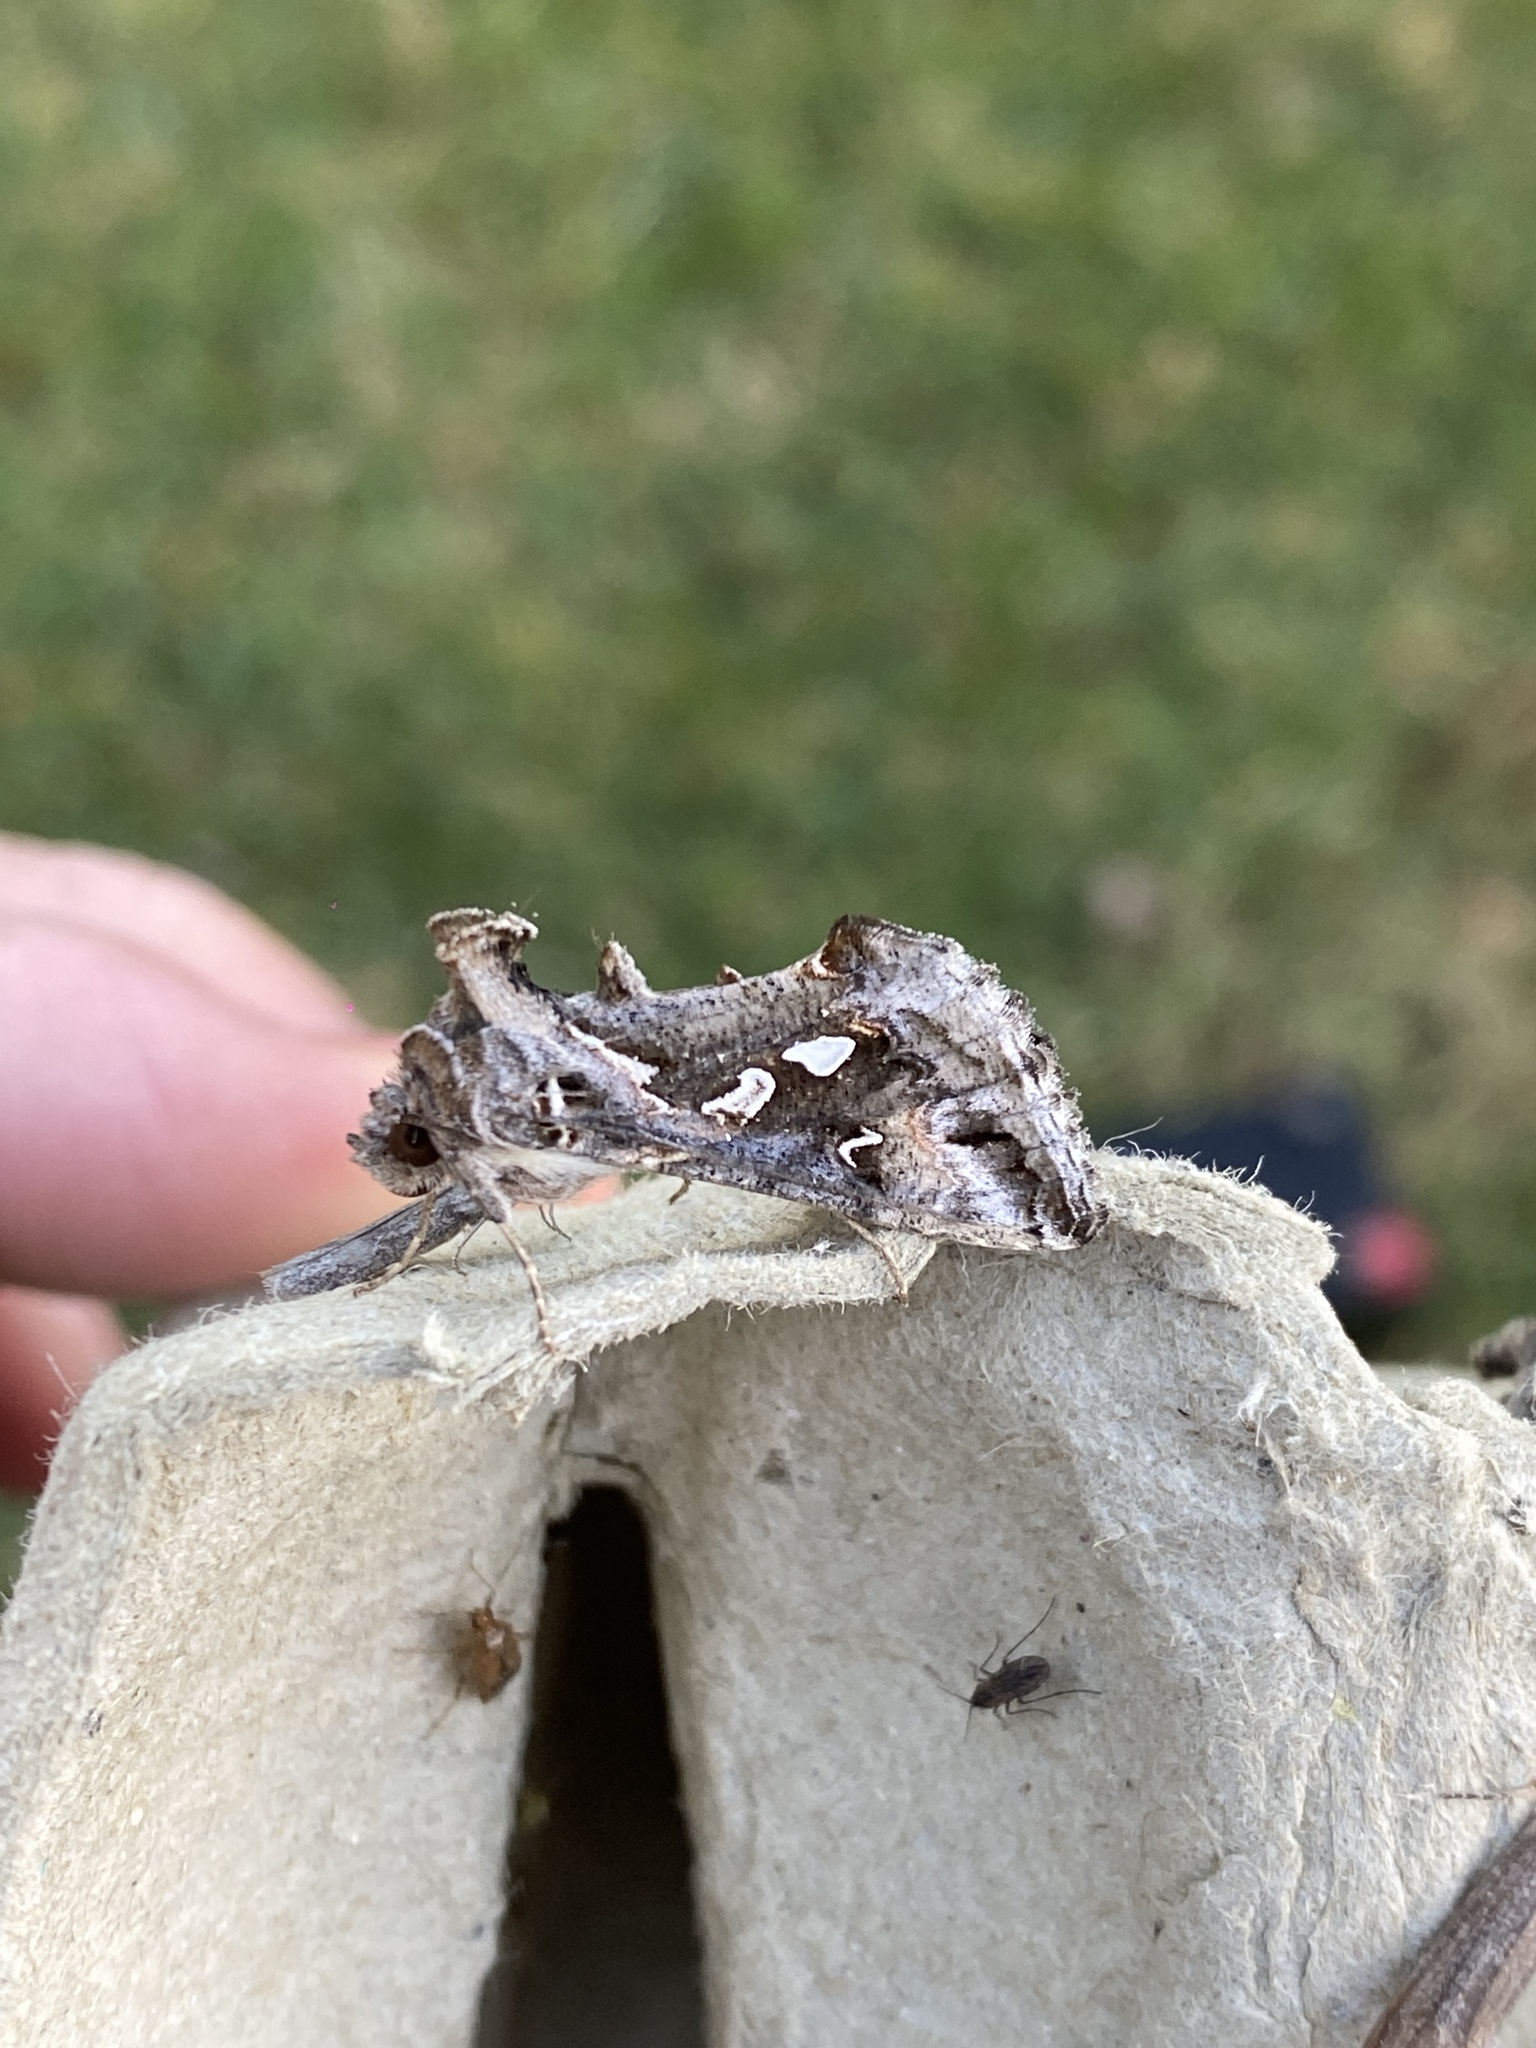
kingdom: Animalia
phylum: Arthropoda
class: Insecta
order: Lepidoptera
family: Noctuidae
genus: Chrysodeixis
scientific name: Chrysodeixis argentifera
